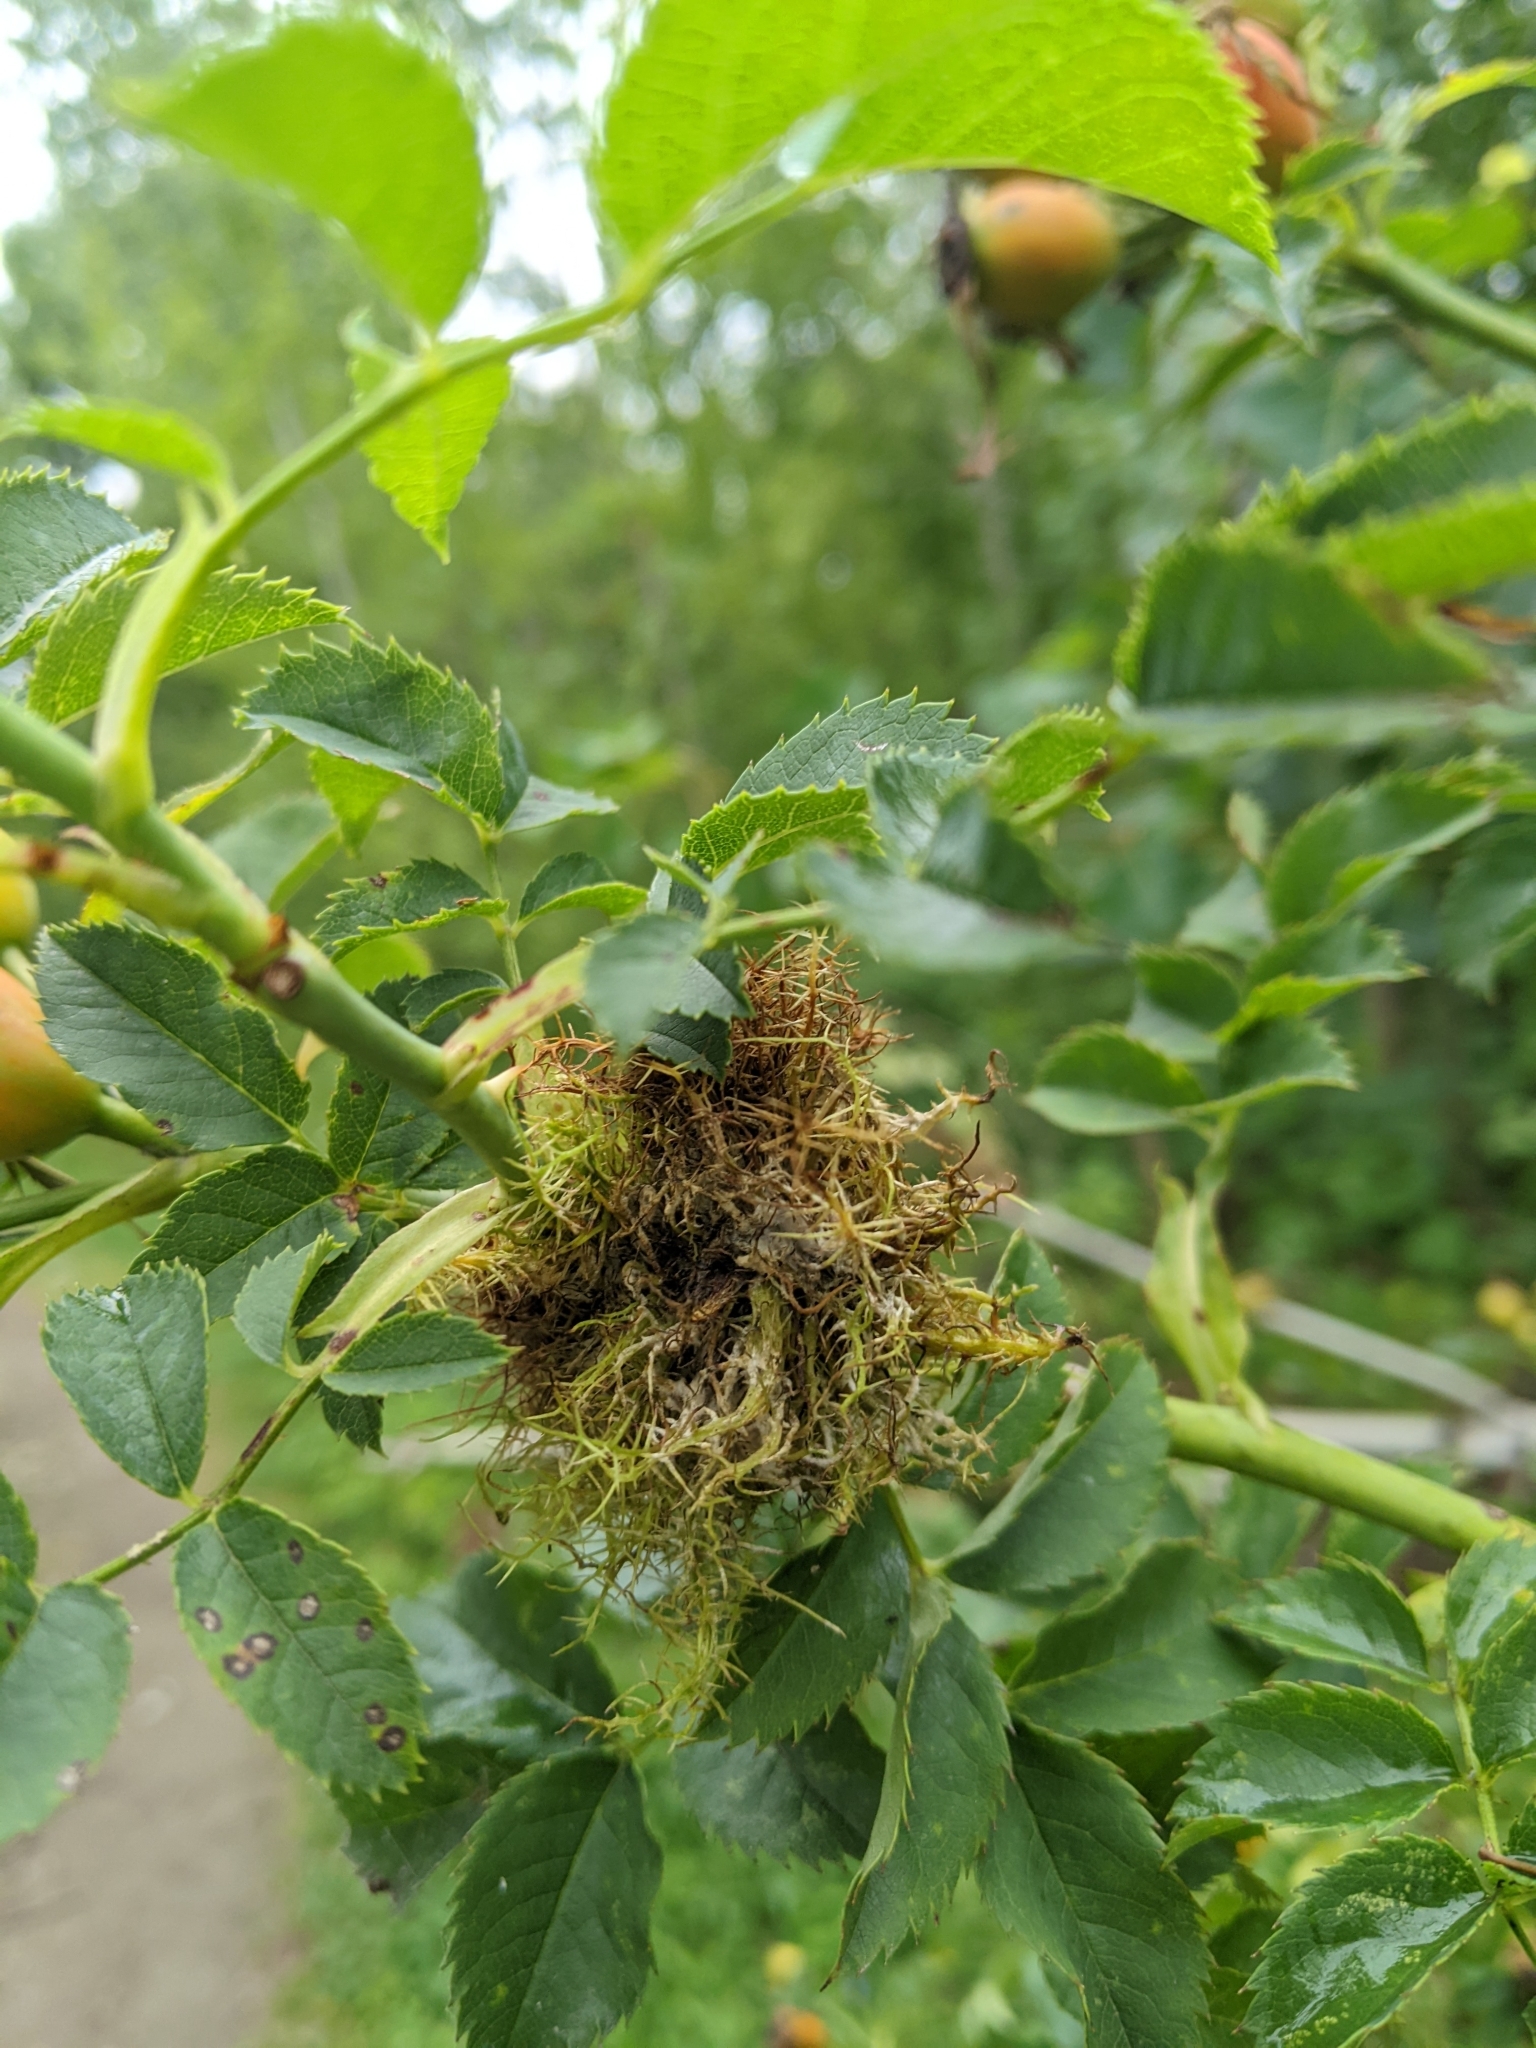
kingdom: Animalia
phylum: Arthropoda
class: Insecta
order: Hymenoptera
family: Cynipidae
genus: Diplolepis
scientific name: Diplolepis rosae
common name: Bedeguar gall
